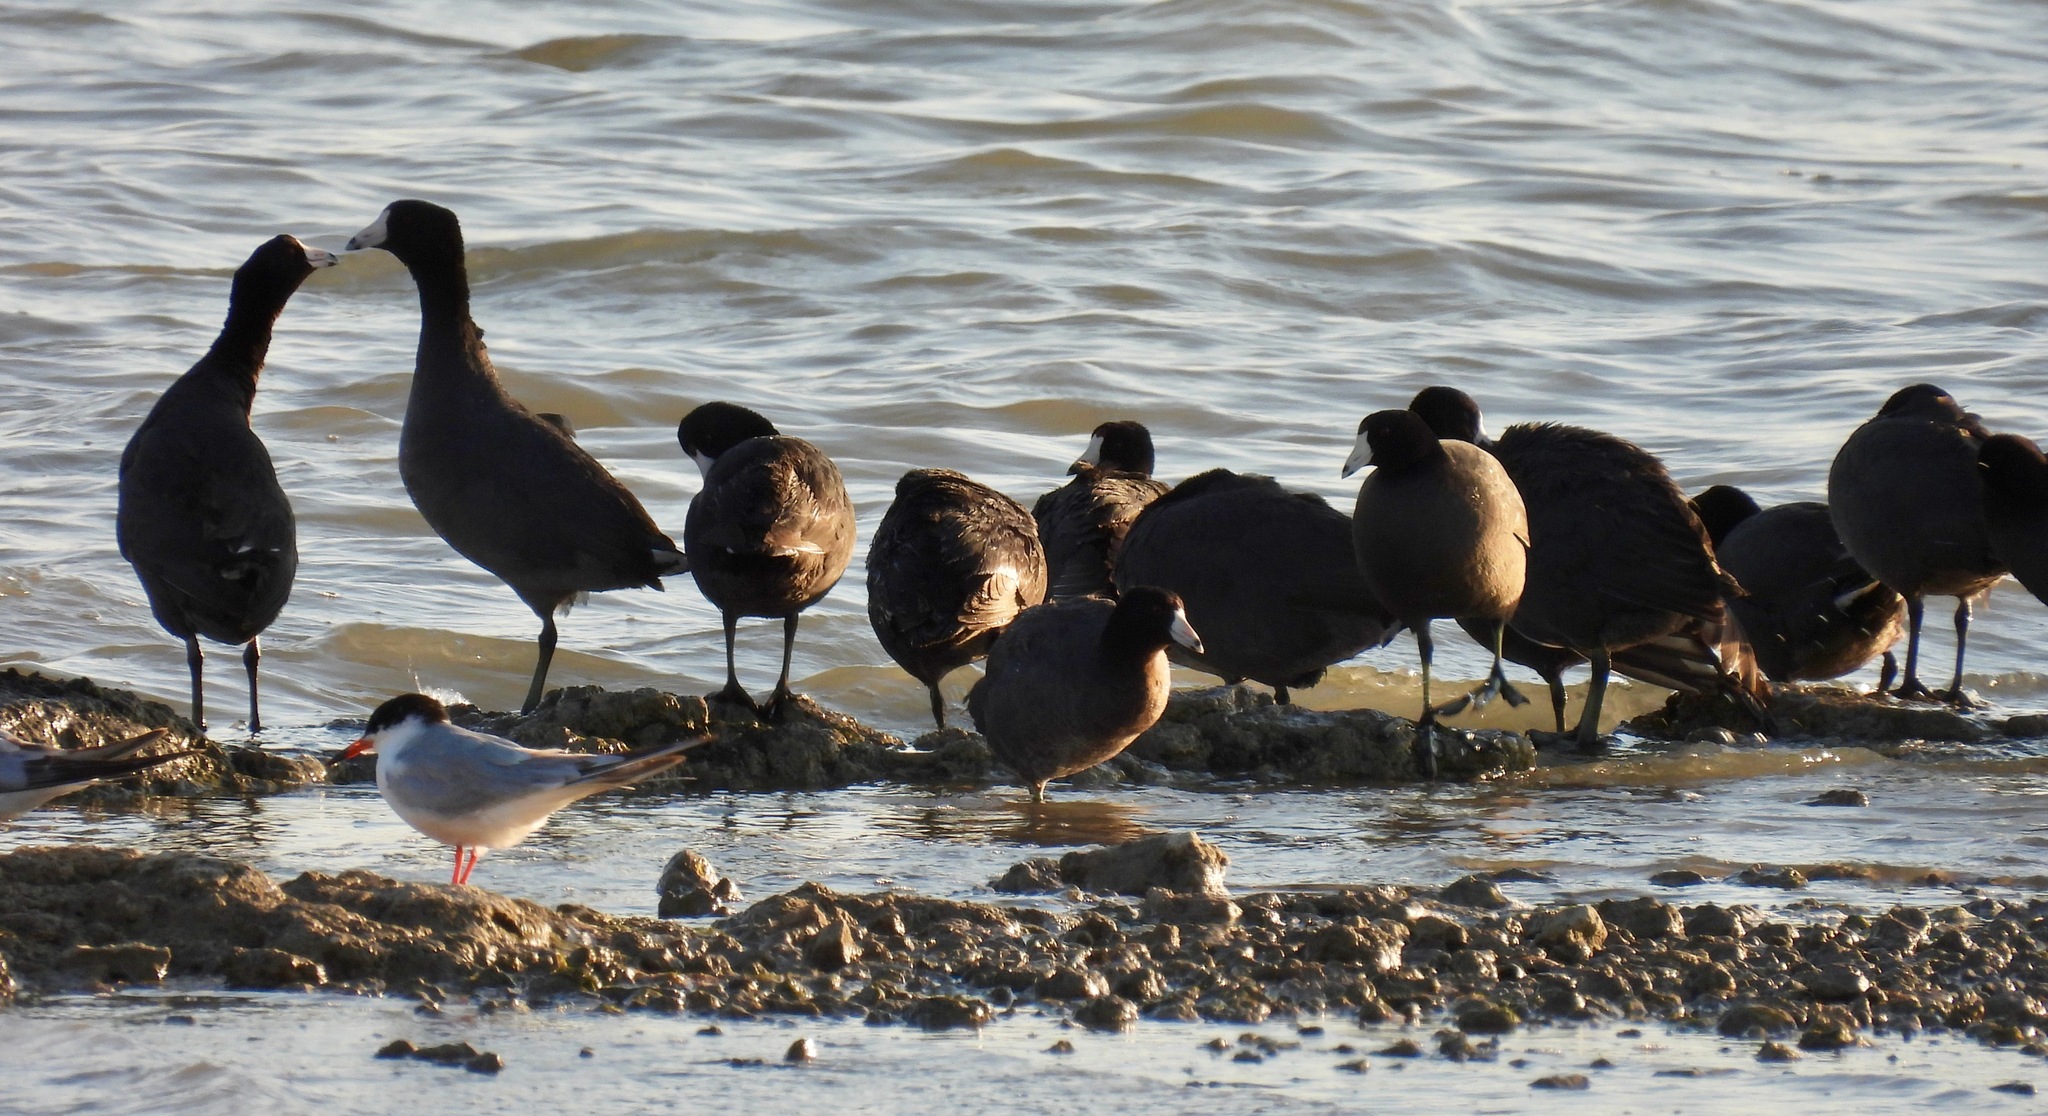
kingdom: Animalia
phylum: Chordata
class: Aves
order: Gruiformes
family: Rallidae
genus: Fulica
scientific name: Fulica americana
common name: American coot
